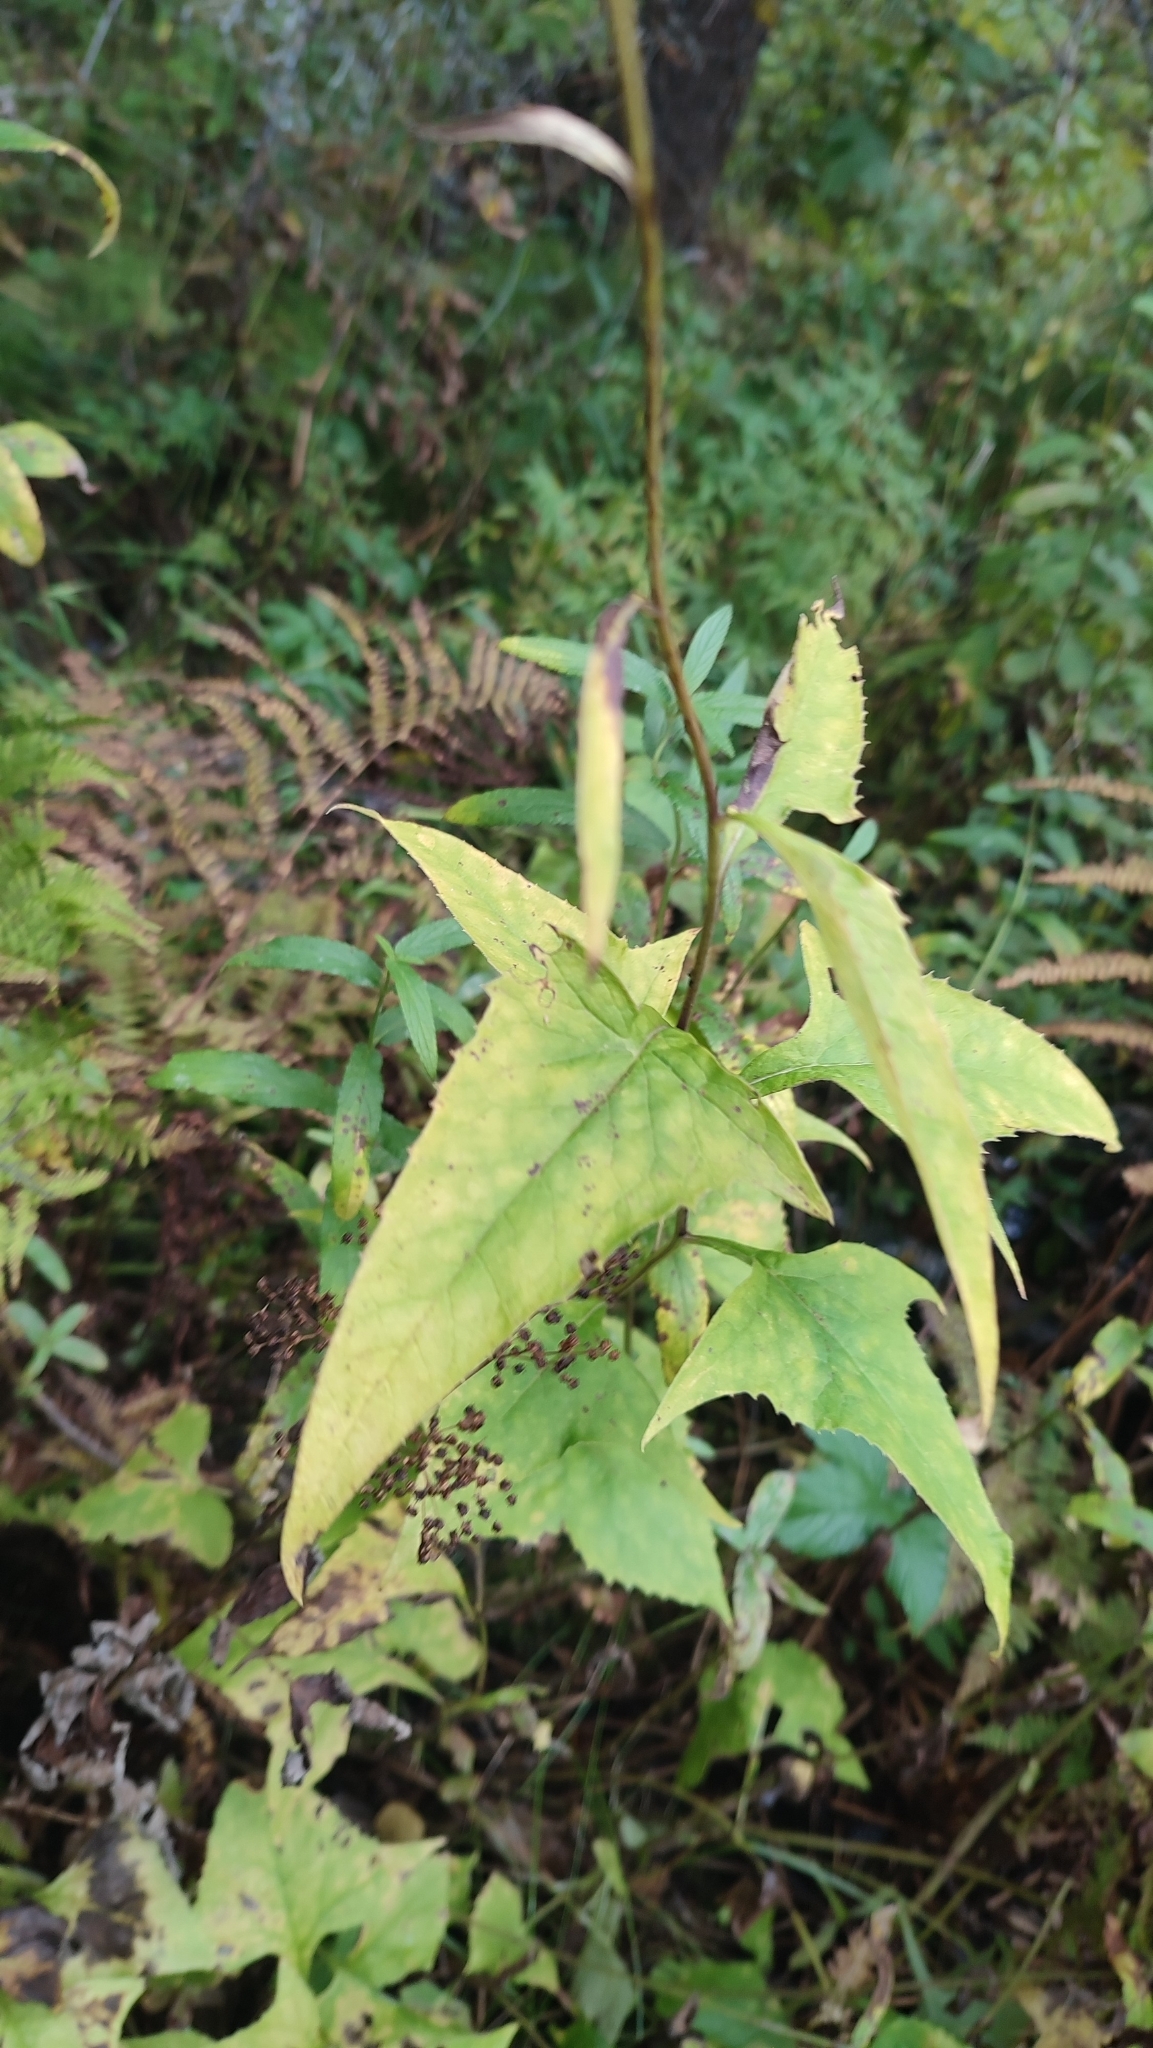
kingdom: Plantae
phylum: Tracheophyta
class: Magnoliopsida
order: Asterales
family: Asteraceae
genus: Parasenecio
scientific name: Parasenecio hastatus
